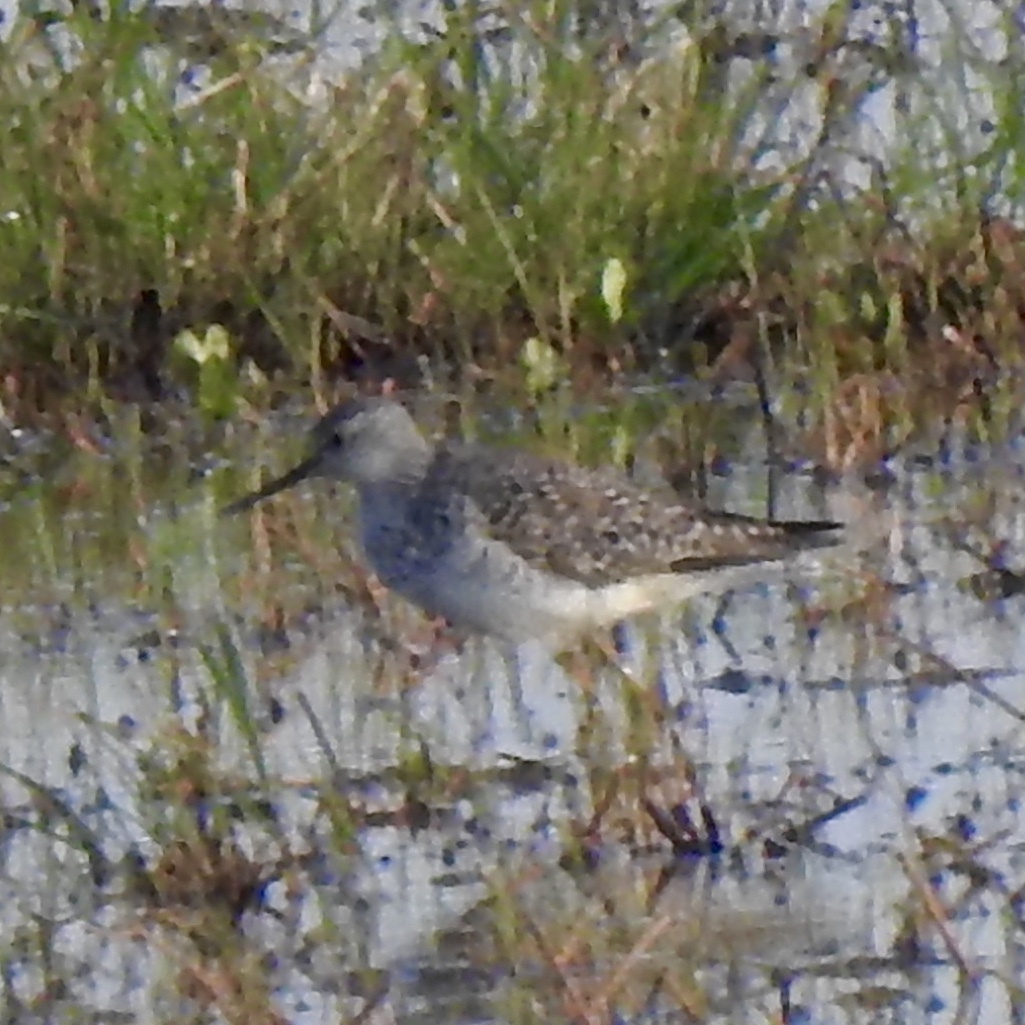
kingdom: Animalia
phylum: Chordata
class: Aves
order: Charadriiformes
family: Scolopacidae
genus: Tringa
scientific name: Tringa flavipes
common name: Lesser yellowlegs
